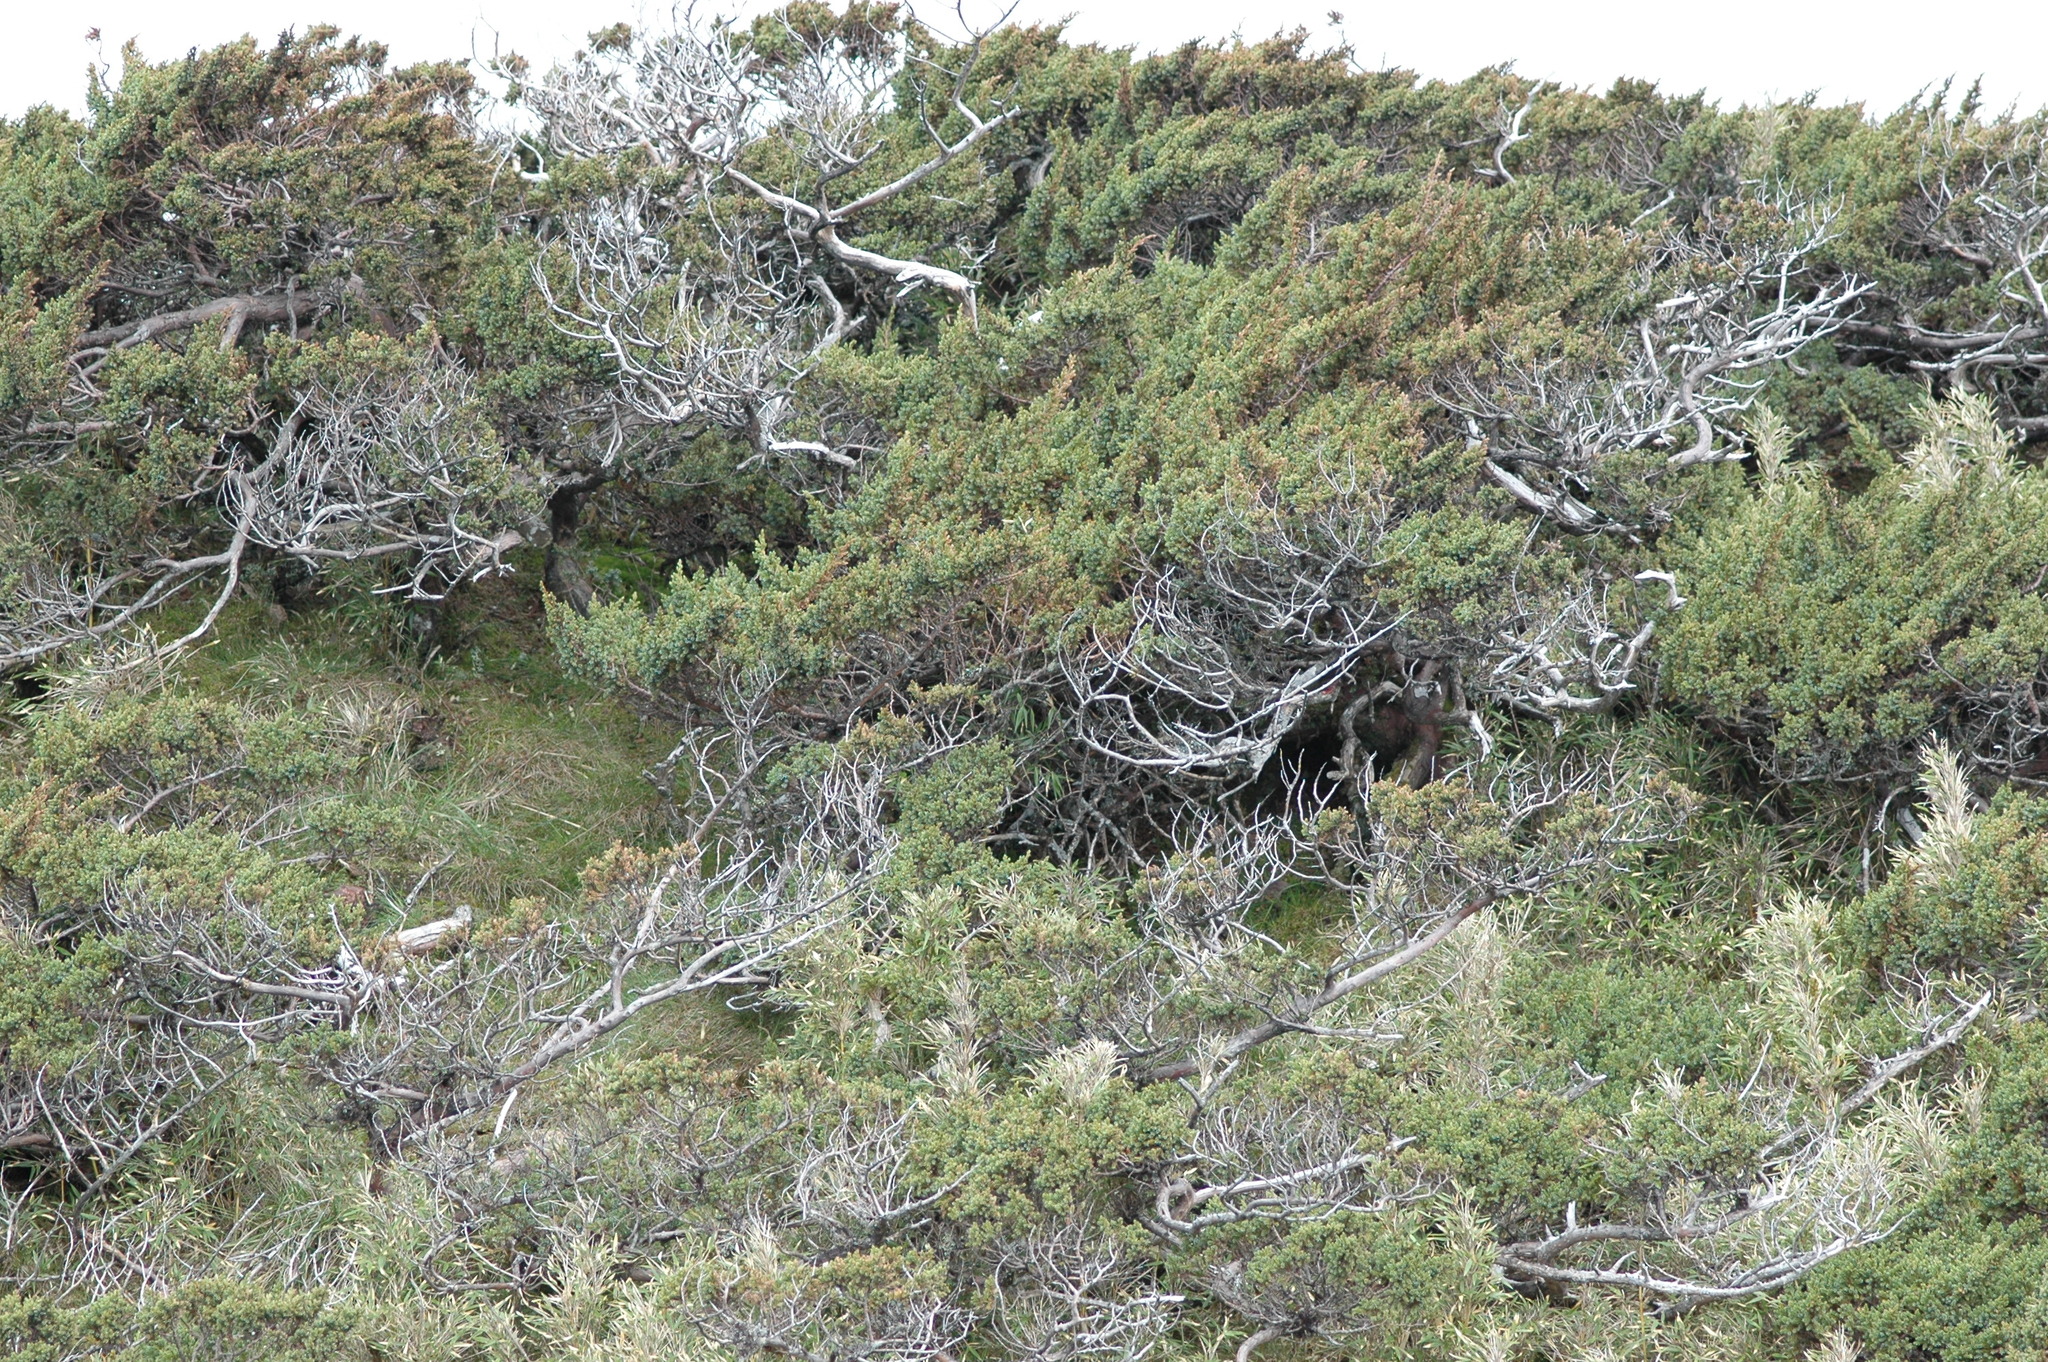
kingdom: Plantae
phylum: Tracheophyta
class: Pinopsida
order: Pinales
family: Cupressaceae
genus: Juniperus
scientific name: Juniperus squamata
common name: Flaky juniper
